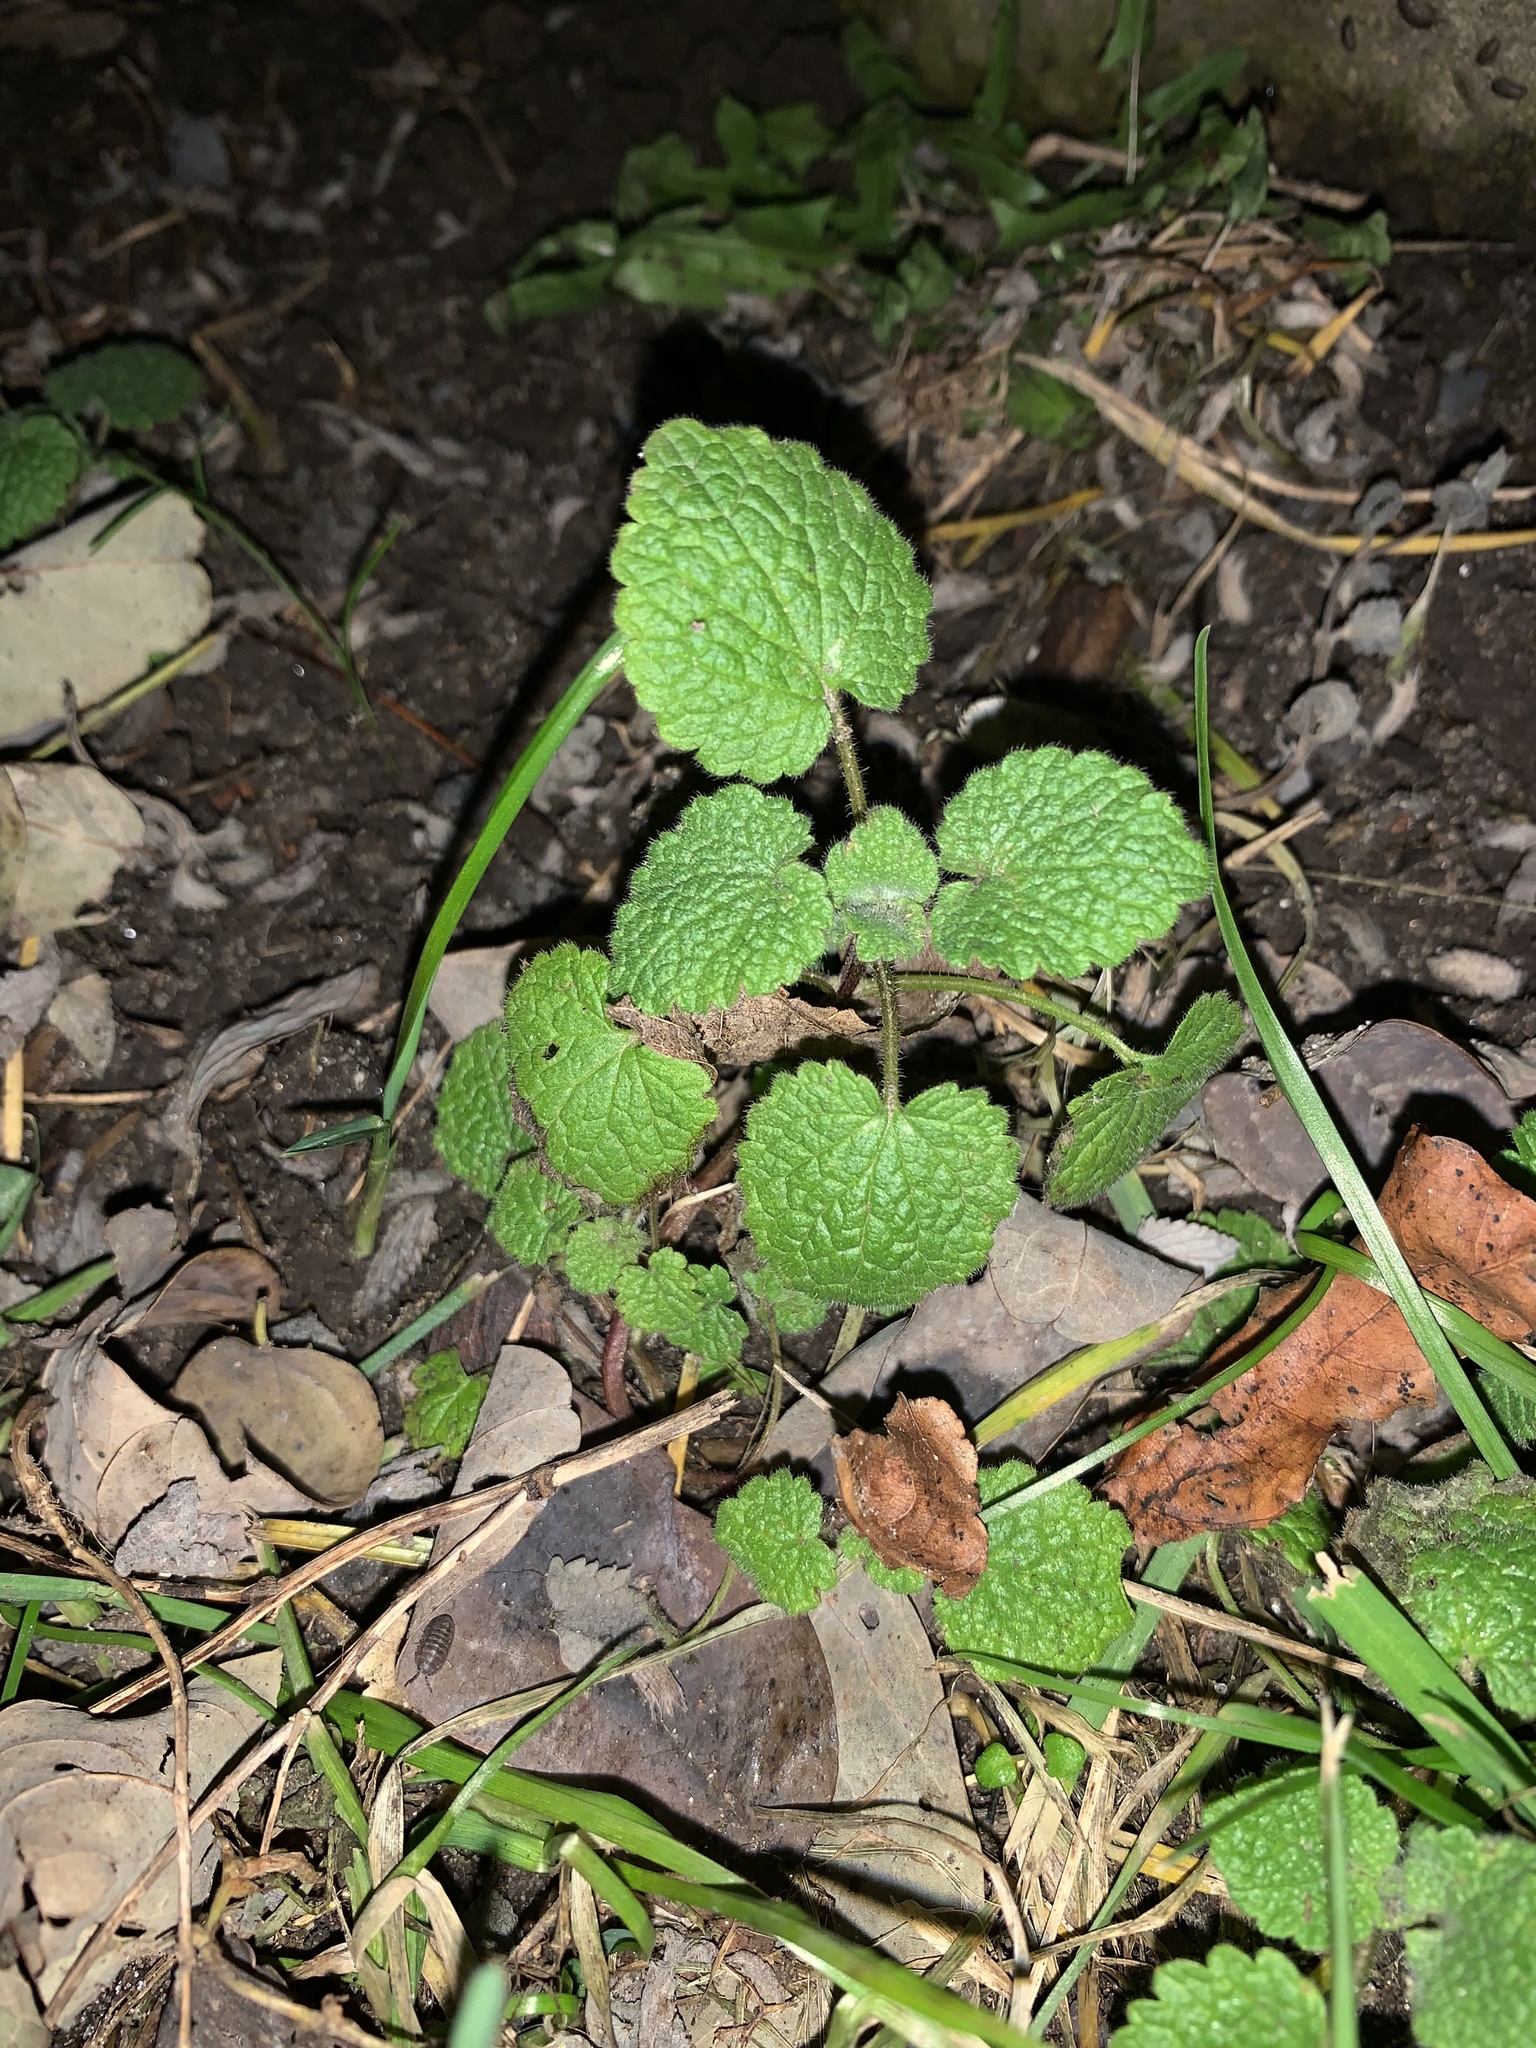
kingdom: Plantae
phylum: Tracheophyta
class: Magnoliopsida
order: Lamiales
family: Lamiaceae
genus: Lamium
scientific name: Lamium purpureum
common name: Red dead-nettle
